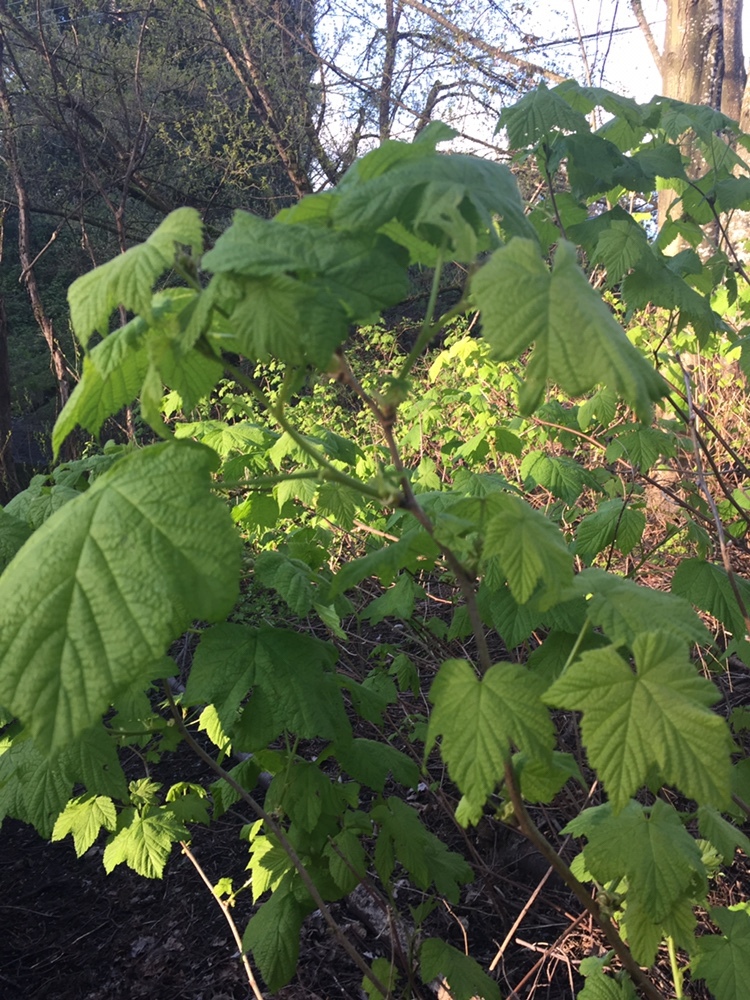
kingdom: Plantae
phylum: Tracheophyta
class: Magnoliopsida
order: Rosales
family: Rosaceae
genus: Rubus
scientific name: Rubus parviflorus
